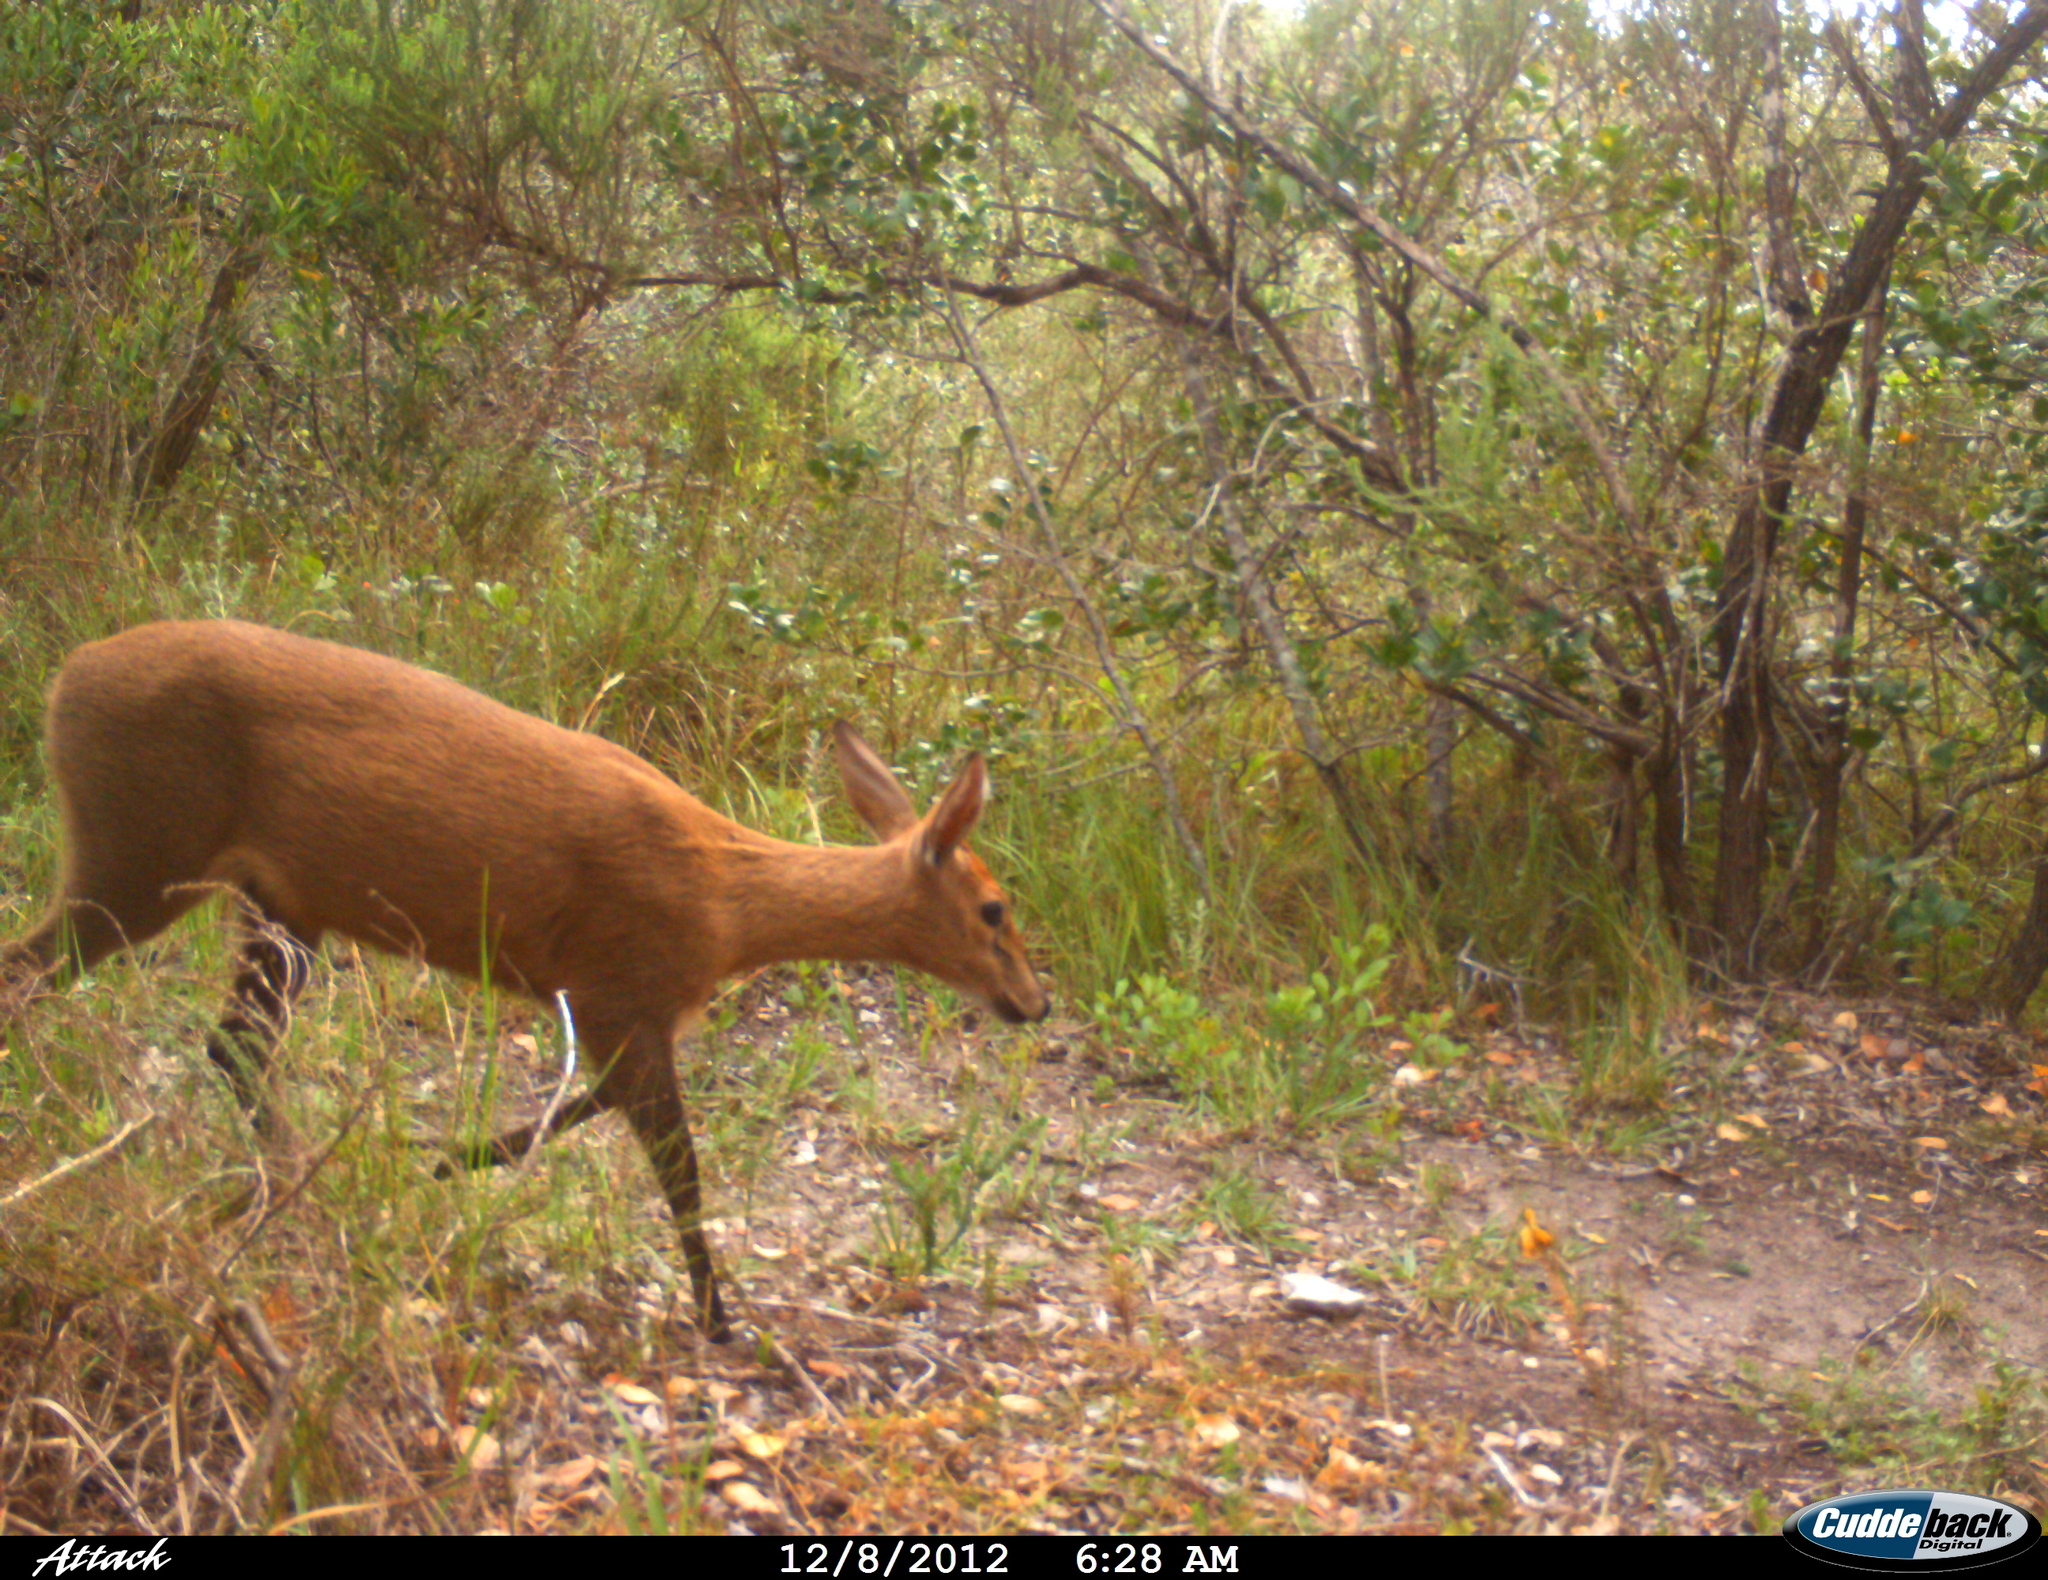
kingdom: Animalia
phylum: Chordata
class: Mammalia
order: Artiodactyla
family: Bovidae
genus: Sylvicapra
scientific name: Sylvicapra grimmia
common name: Bush duiker
